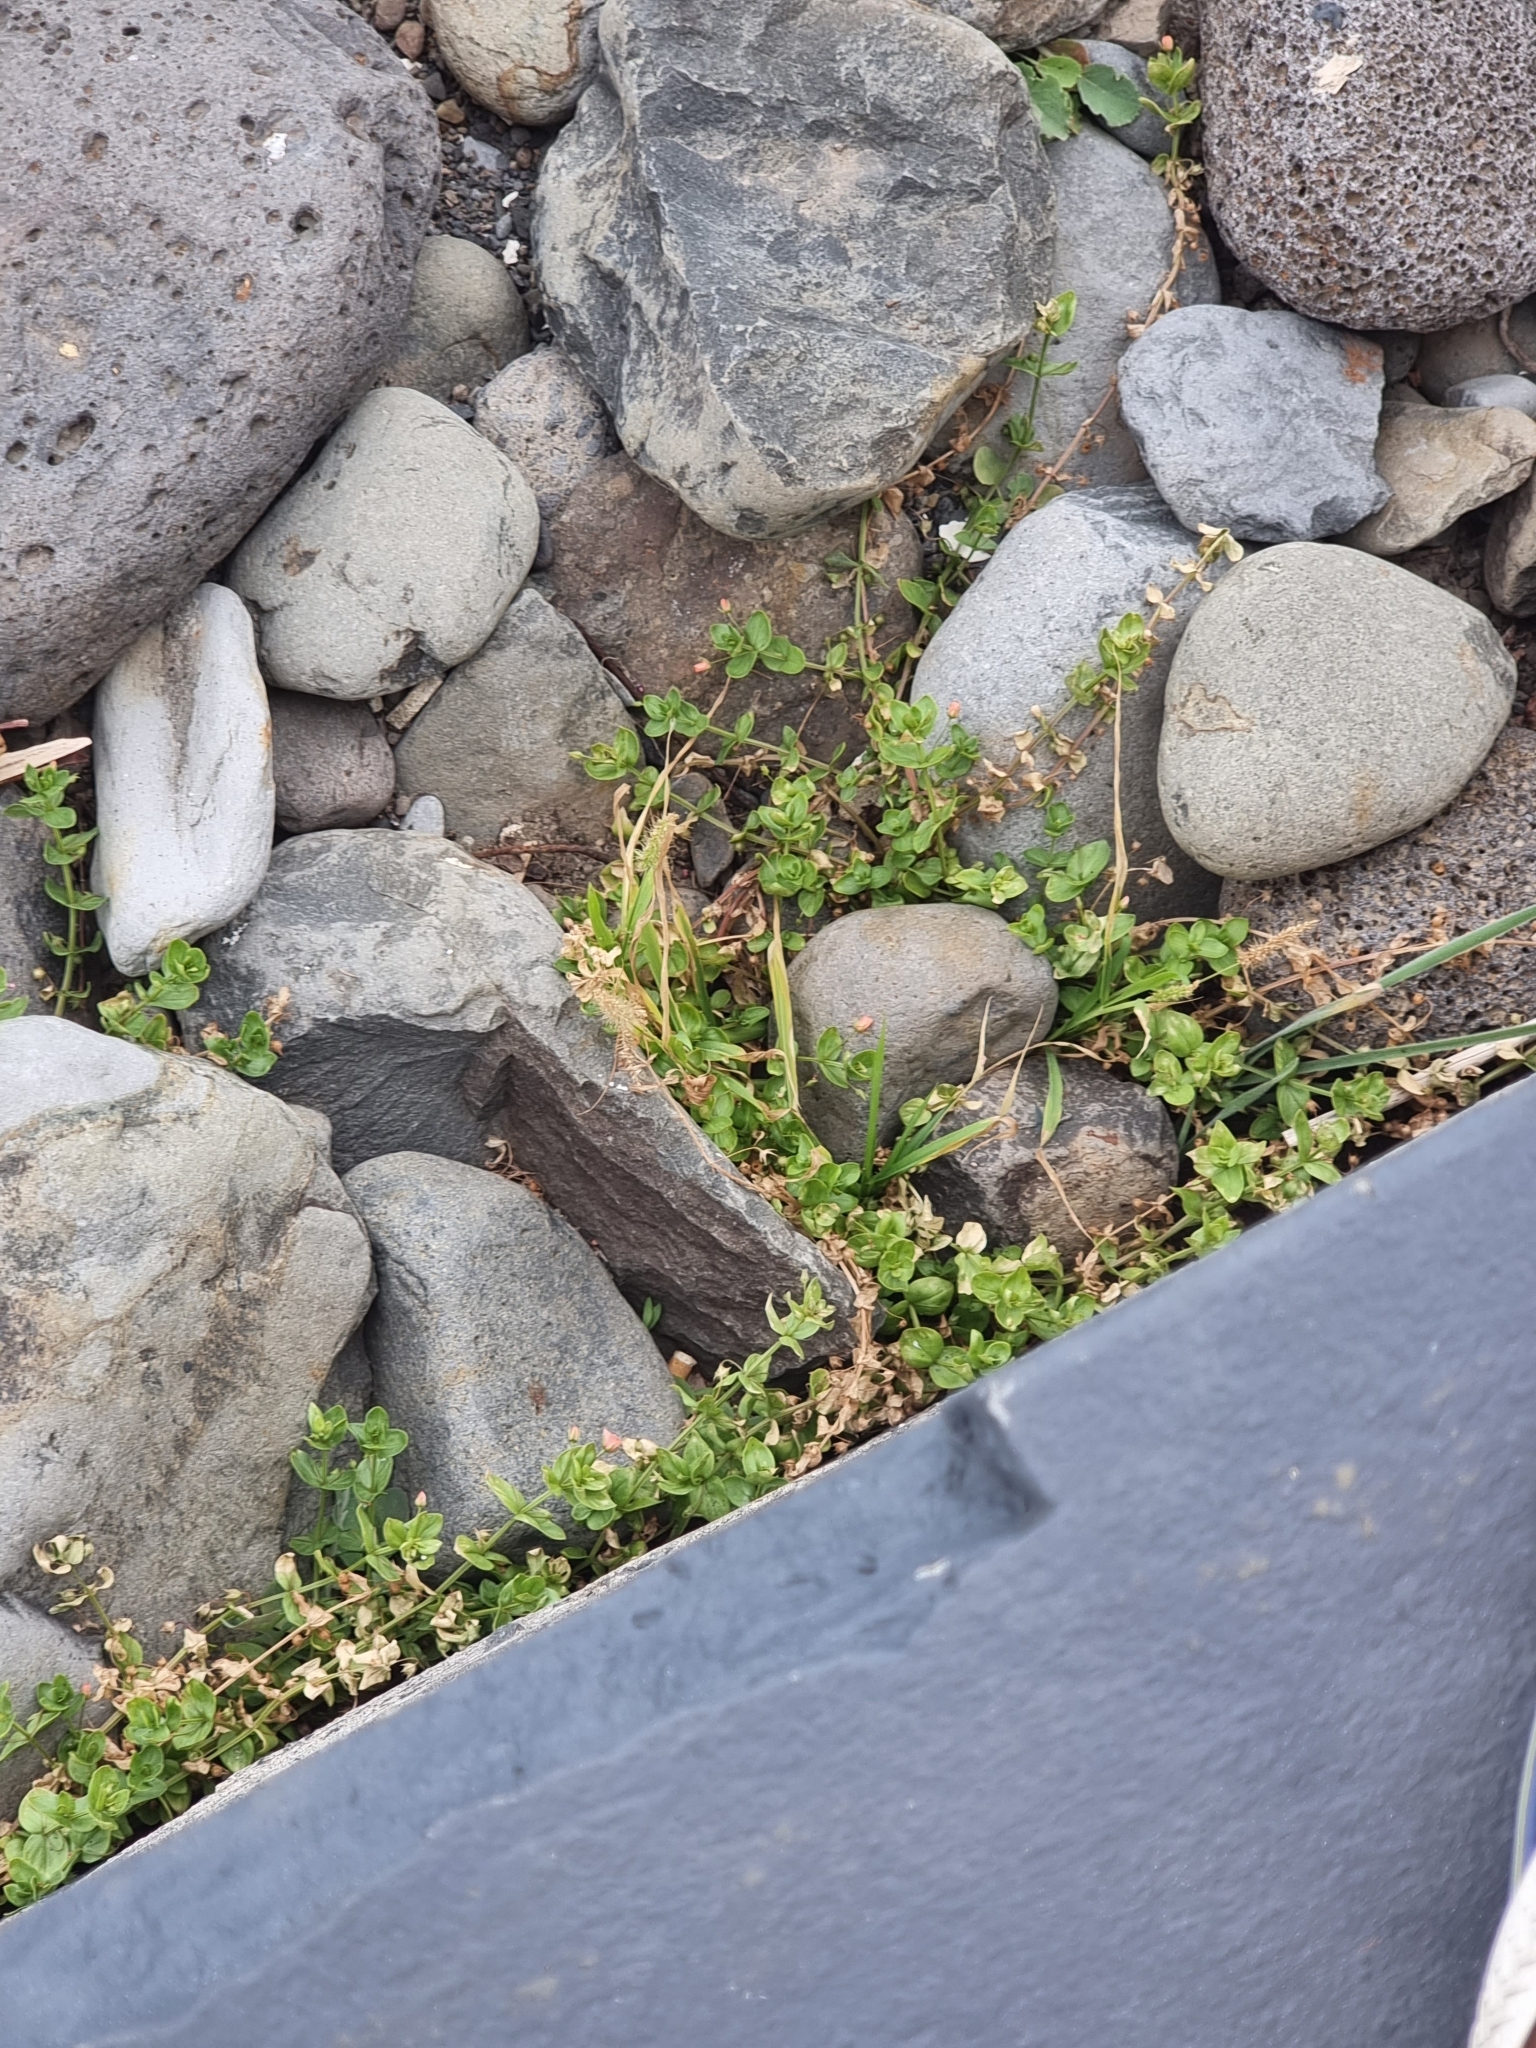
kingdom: Plantae
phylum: Tracheophyta
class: Magnoliopsida
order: Ericales
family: Primulaceae
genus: Lysimachia
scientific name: Lysimachia arvensis
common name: Scarlet pimpernel
